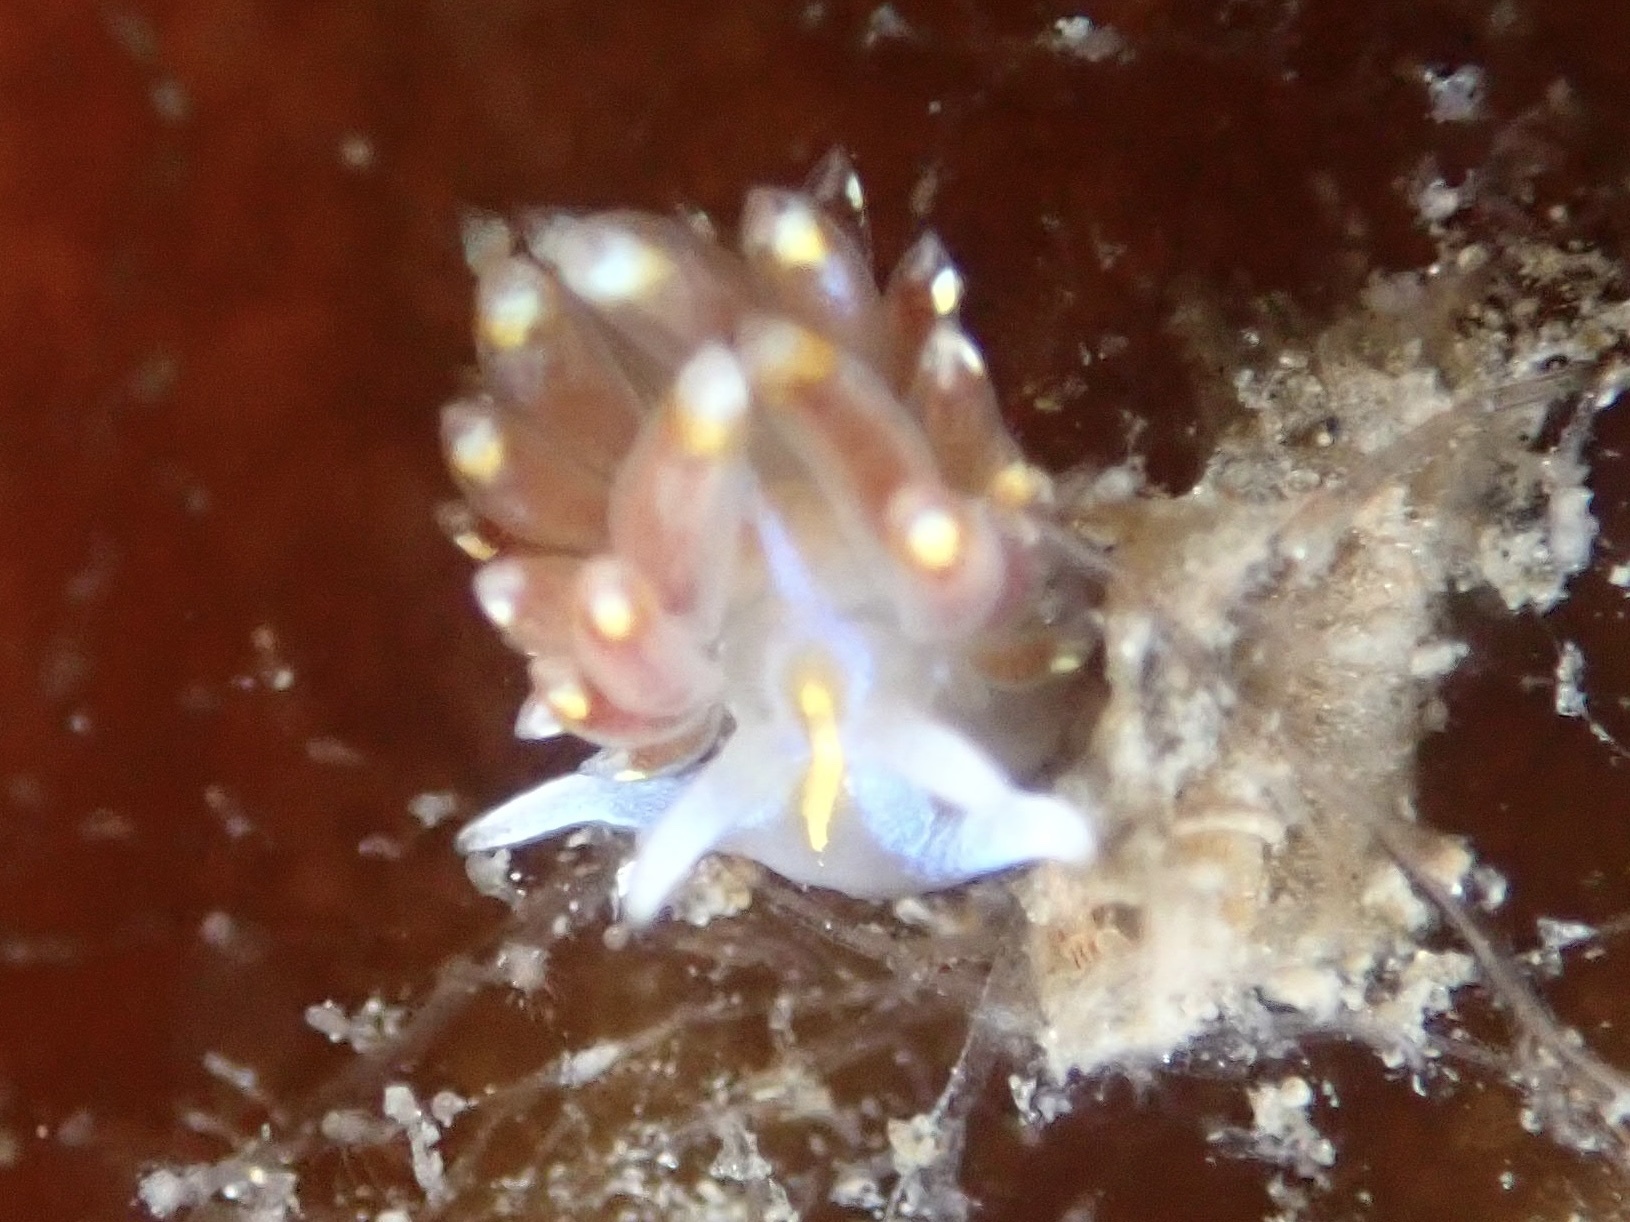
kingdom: Animalia
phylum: Mollusca
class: Gastropoda
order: Nudibranchia
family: Myrrhinidae
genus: Hermissenda
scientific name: Hermissenda opalescens
